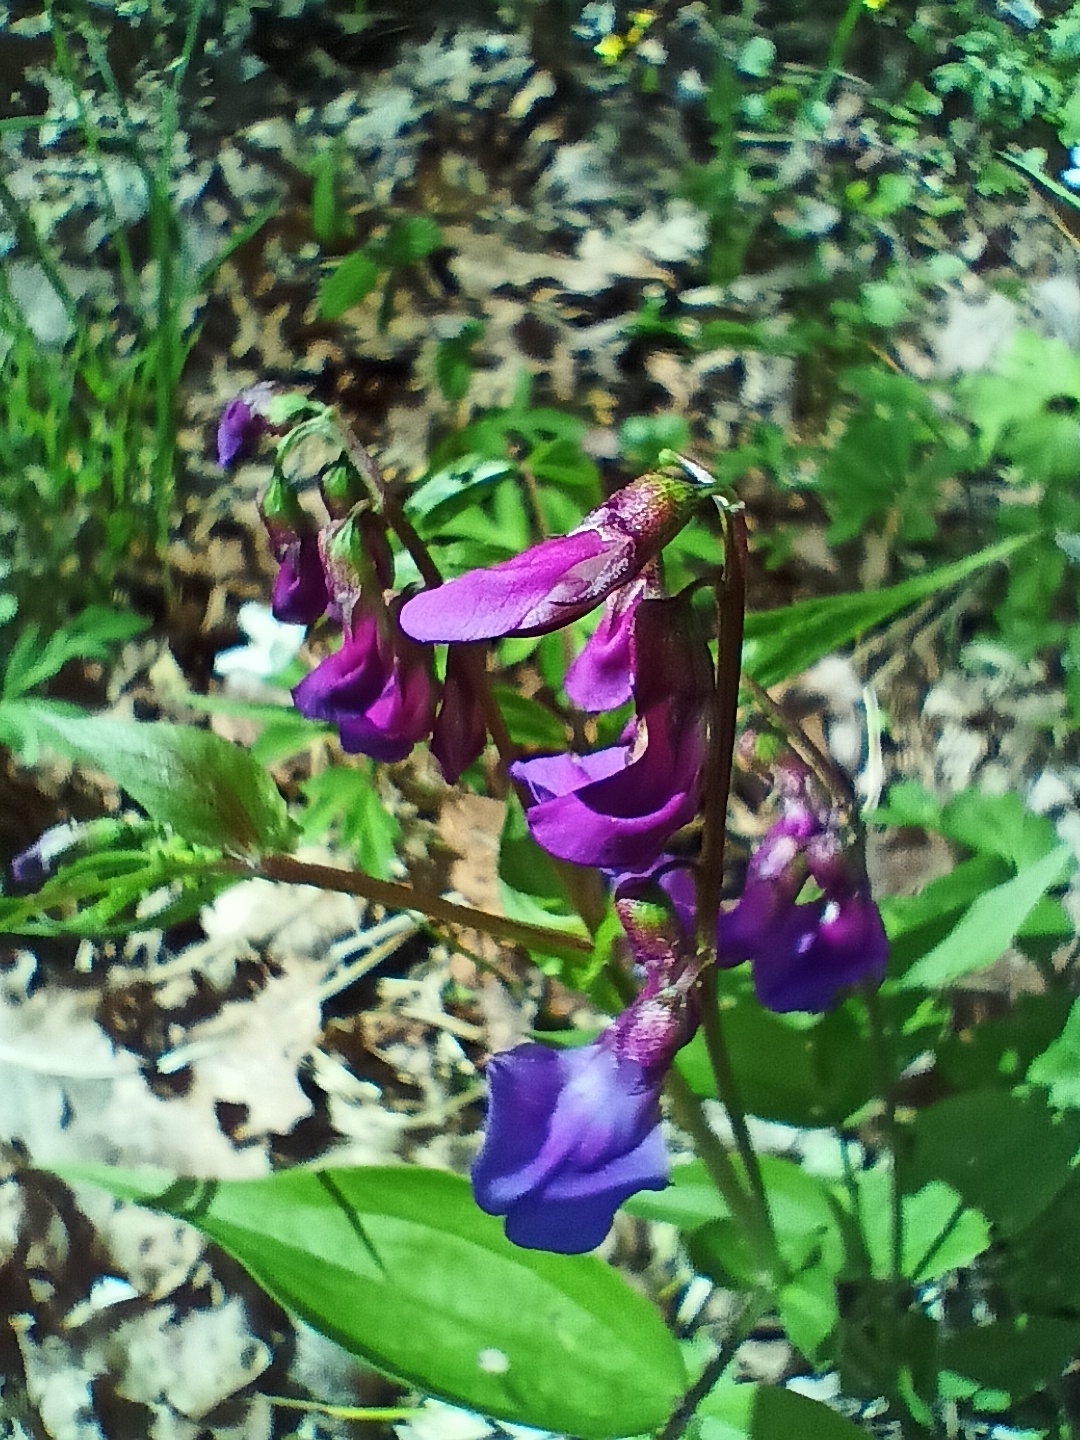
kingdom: Plantae
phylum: Tracheophyta
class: Magnoliopsida
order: Fabales
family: Fabaceae
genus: Lathyrus
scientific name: Lathyrus vernus
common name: Spring pea
